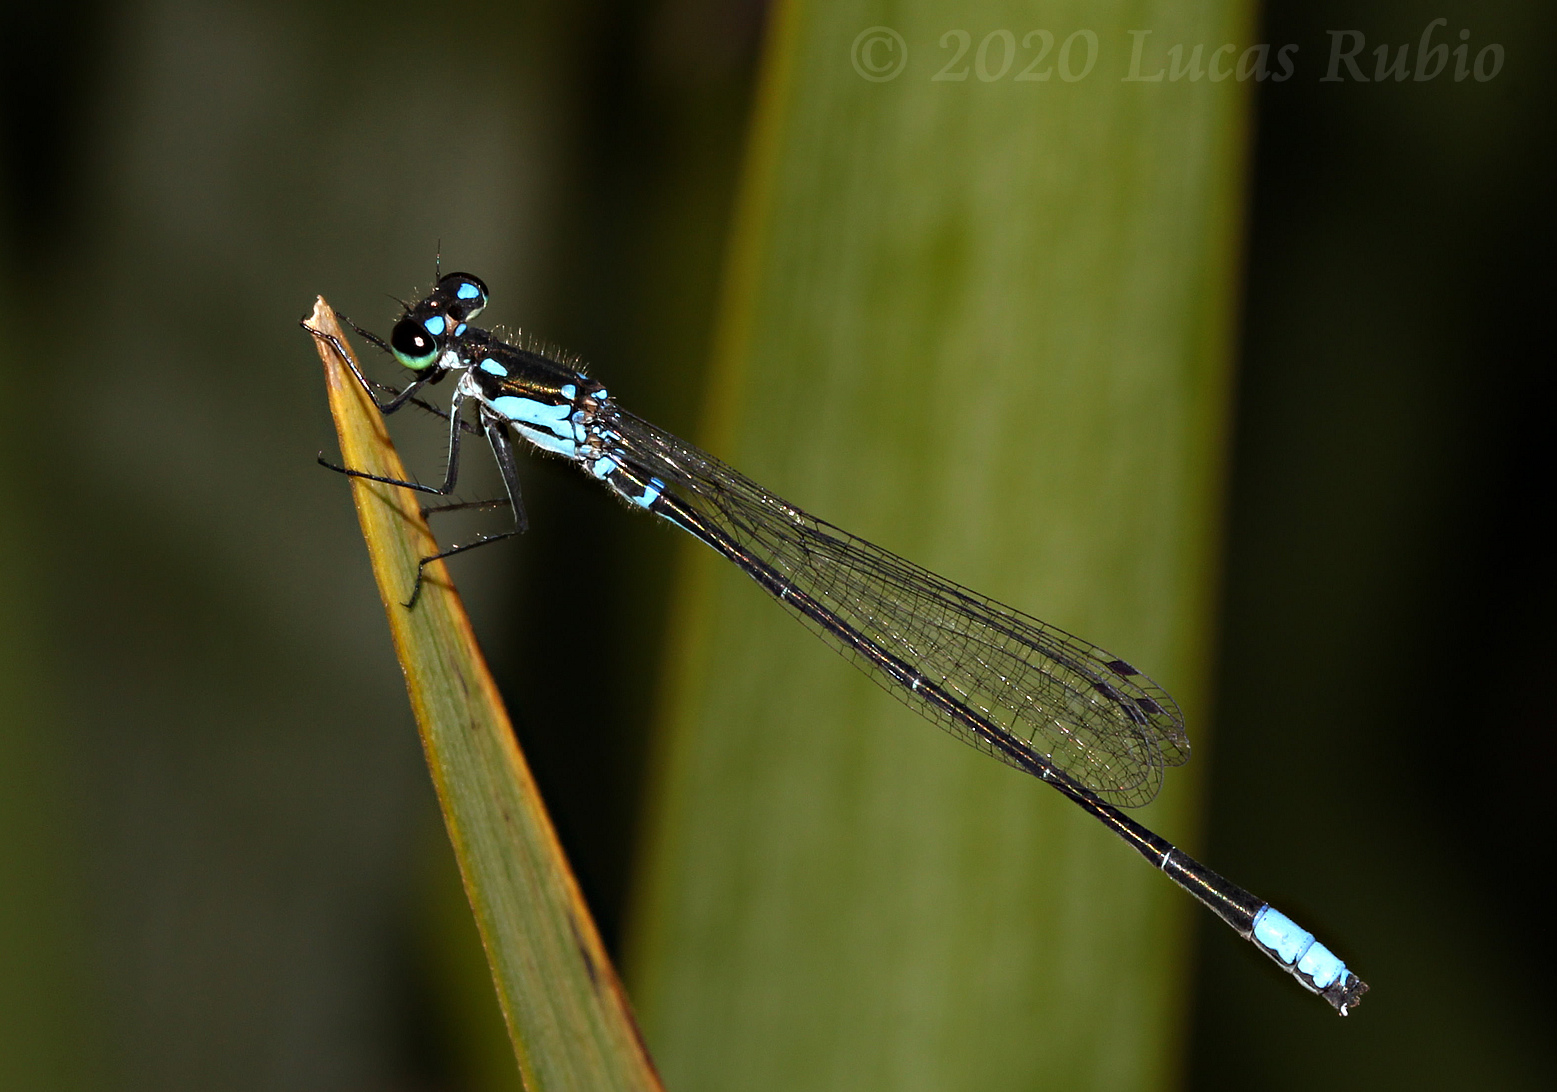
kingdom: Animalia
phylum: Arthropoda
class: Insecta
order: Odonata
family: Coenagrionidae
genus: Cyanallagma
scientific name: Cyanallagma bonariense
